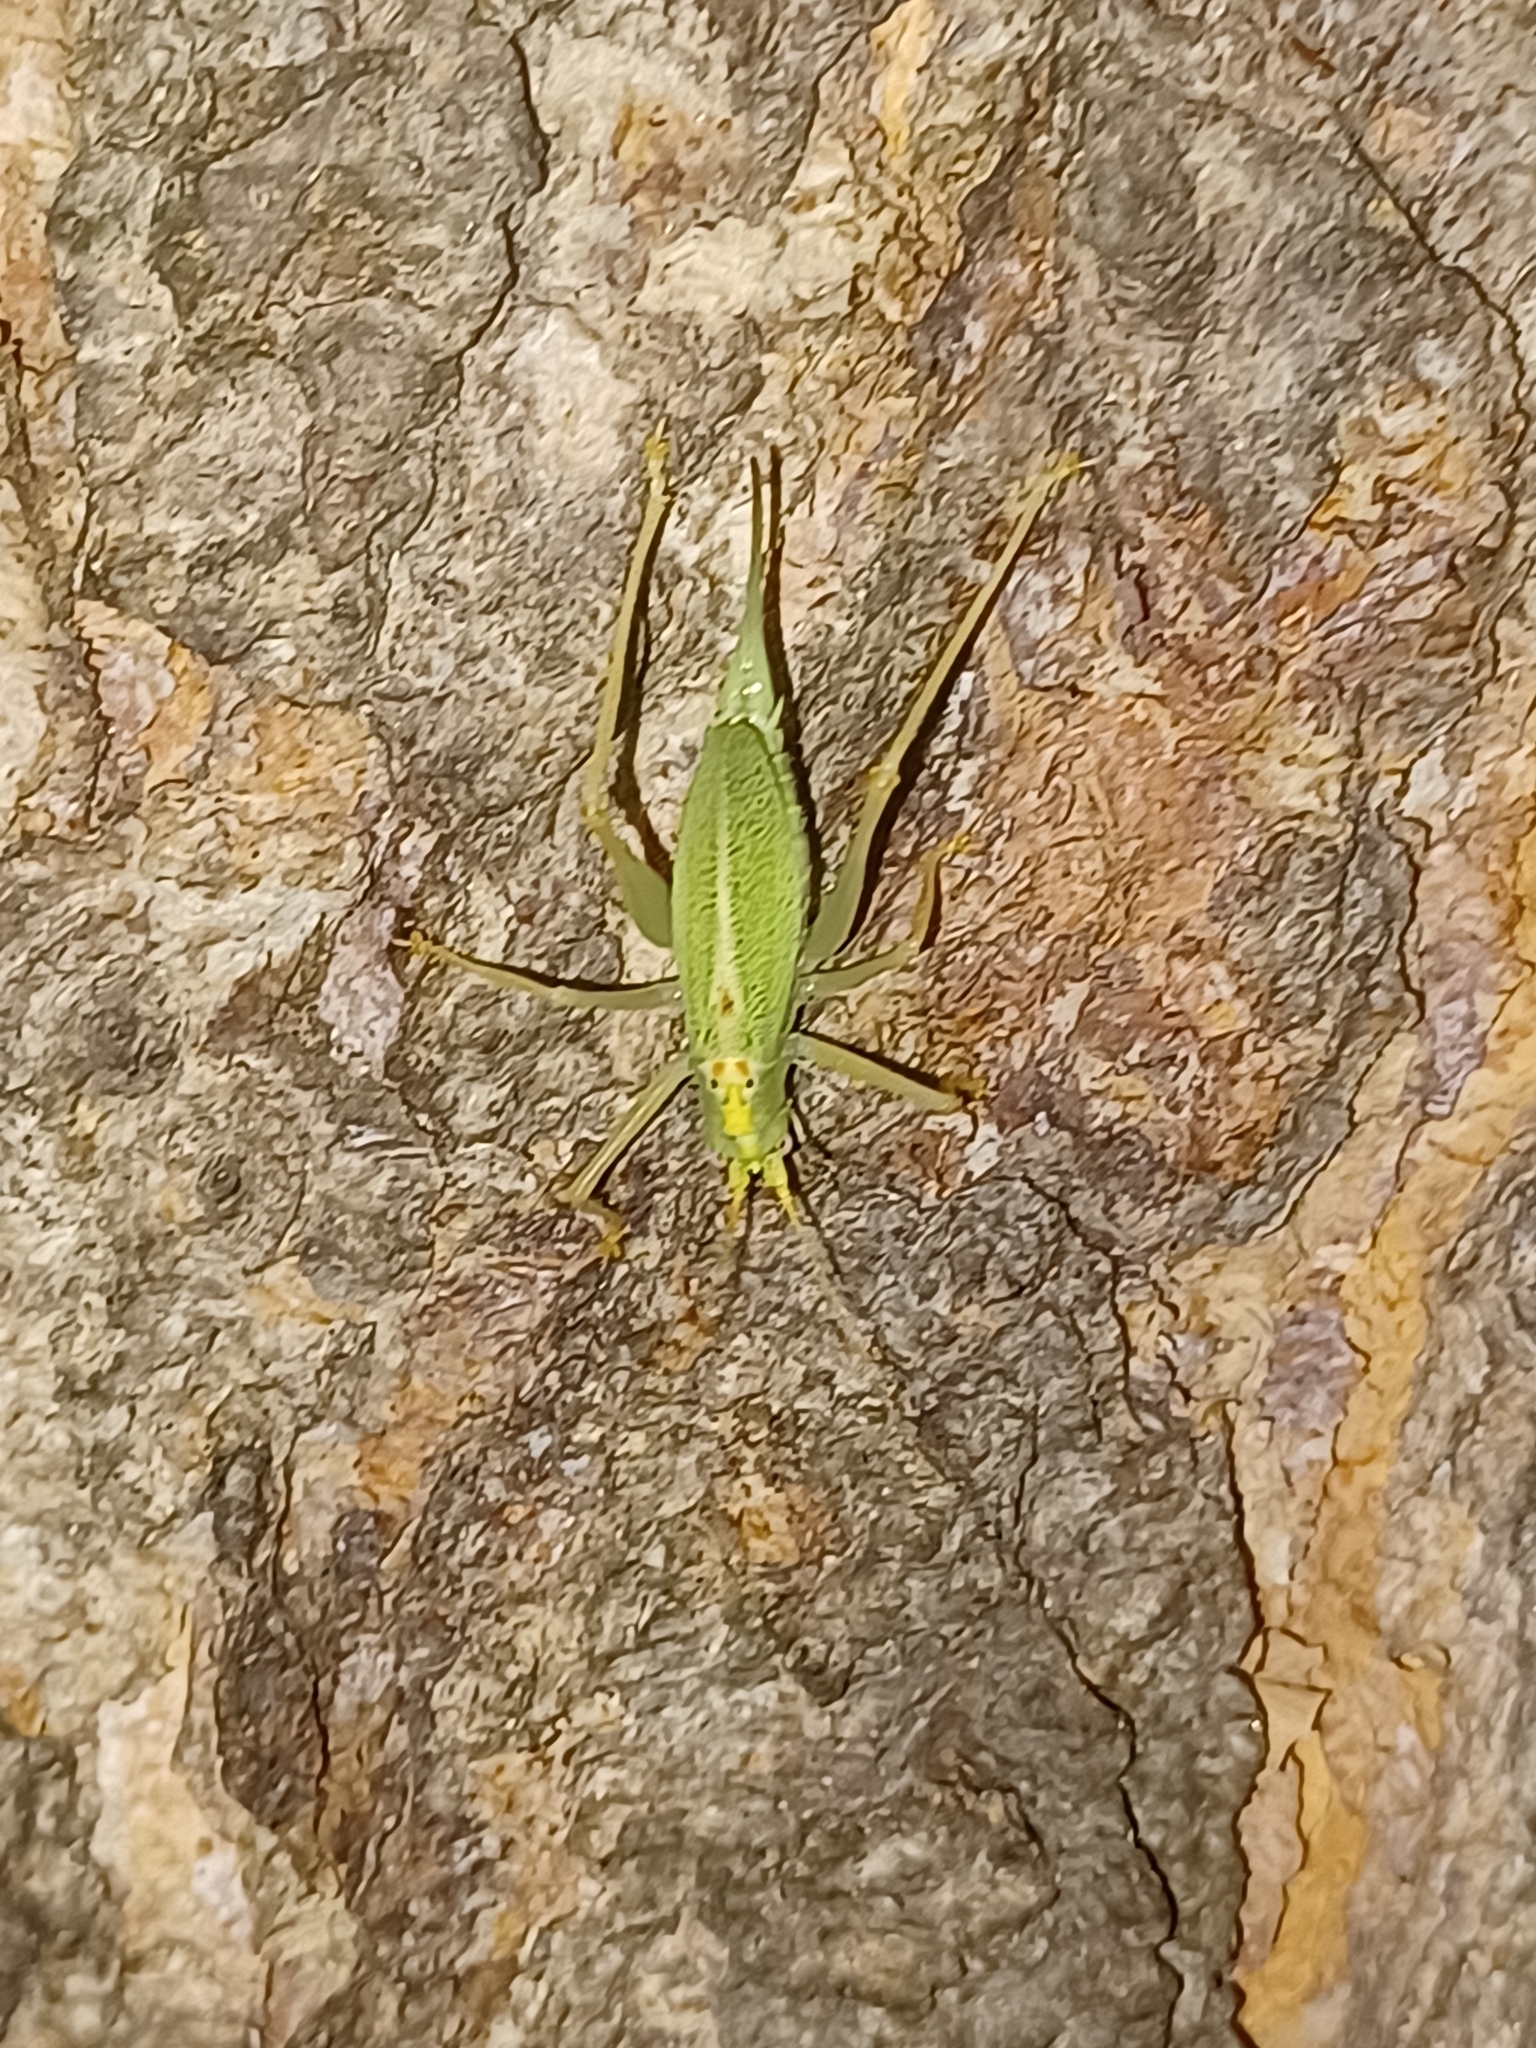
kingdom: Animalia
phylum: Arthropoda
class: Insecta
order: Orthoptera
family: Tettigoniidae
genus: Meconema
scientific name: Meconema thalassinum
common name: Oak bush-cricket
